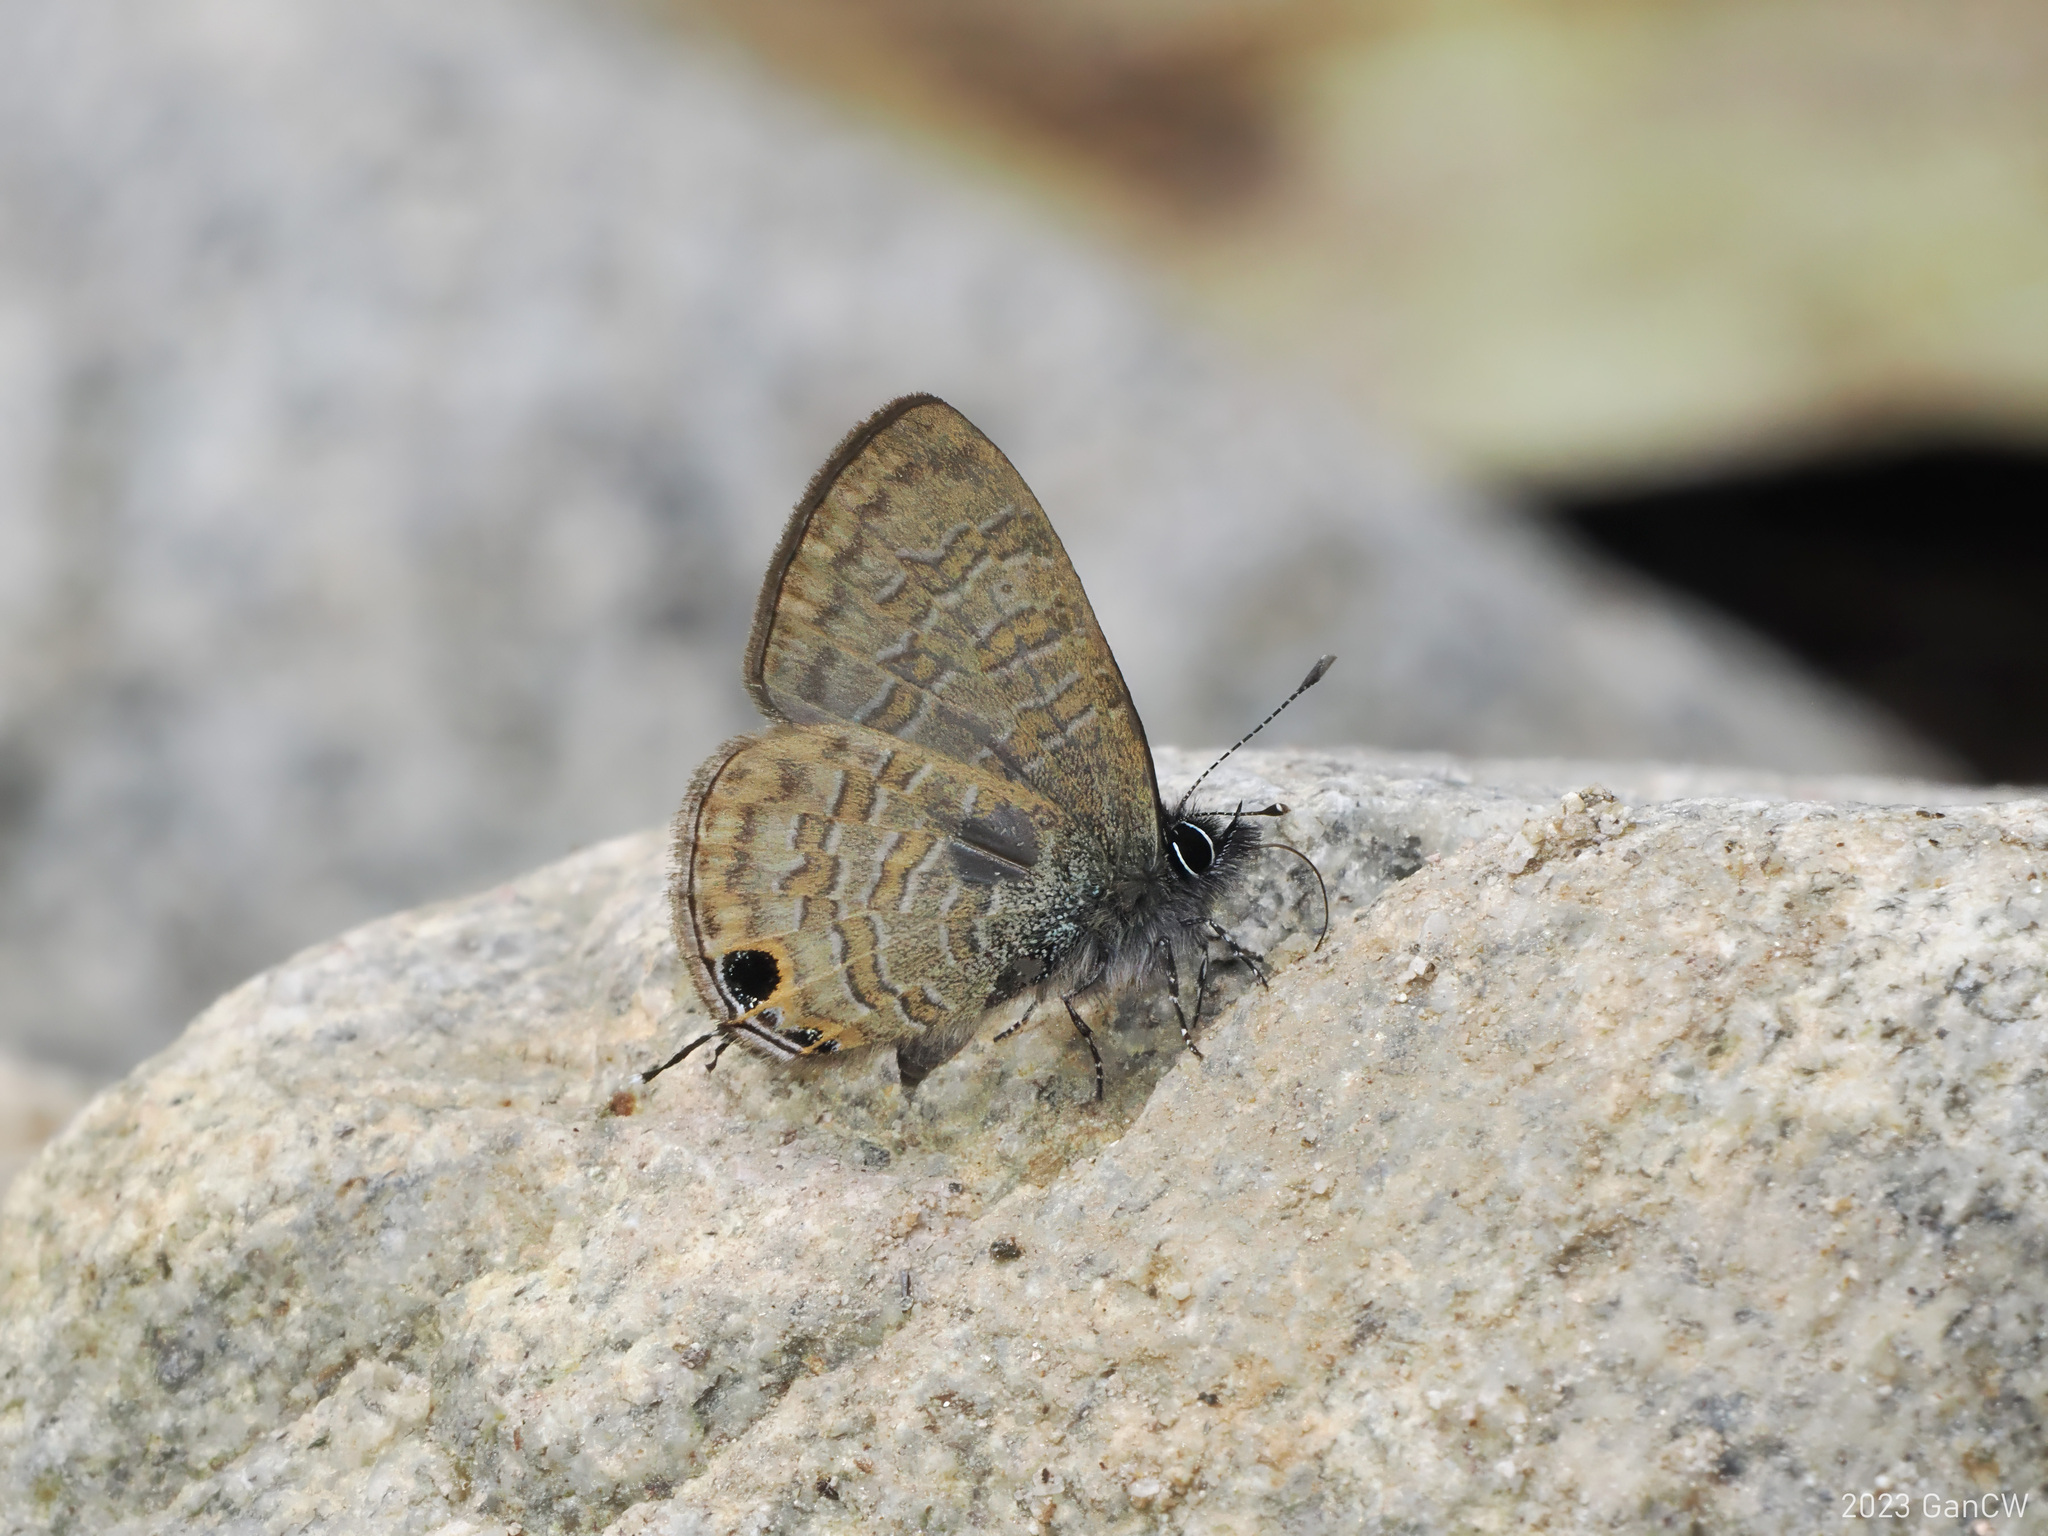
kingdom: Animalia
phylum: Arthropoda
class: Insecta
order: Lepidoptera
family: Lycaenidae
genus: Prosotas
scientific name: Prosotas nora
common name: Common line blue
